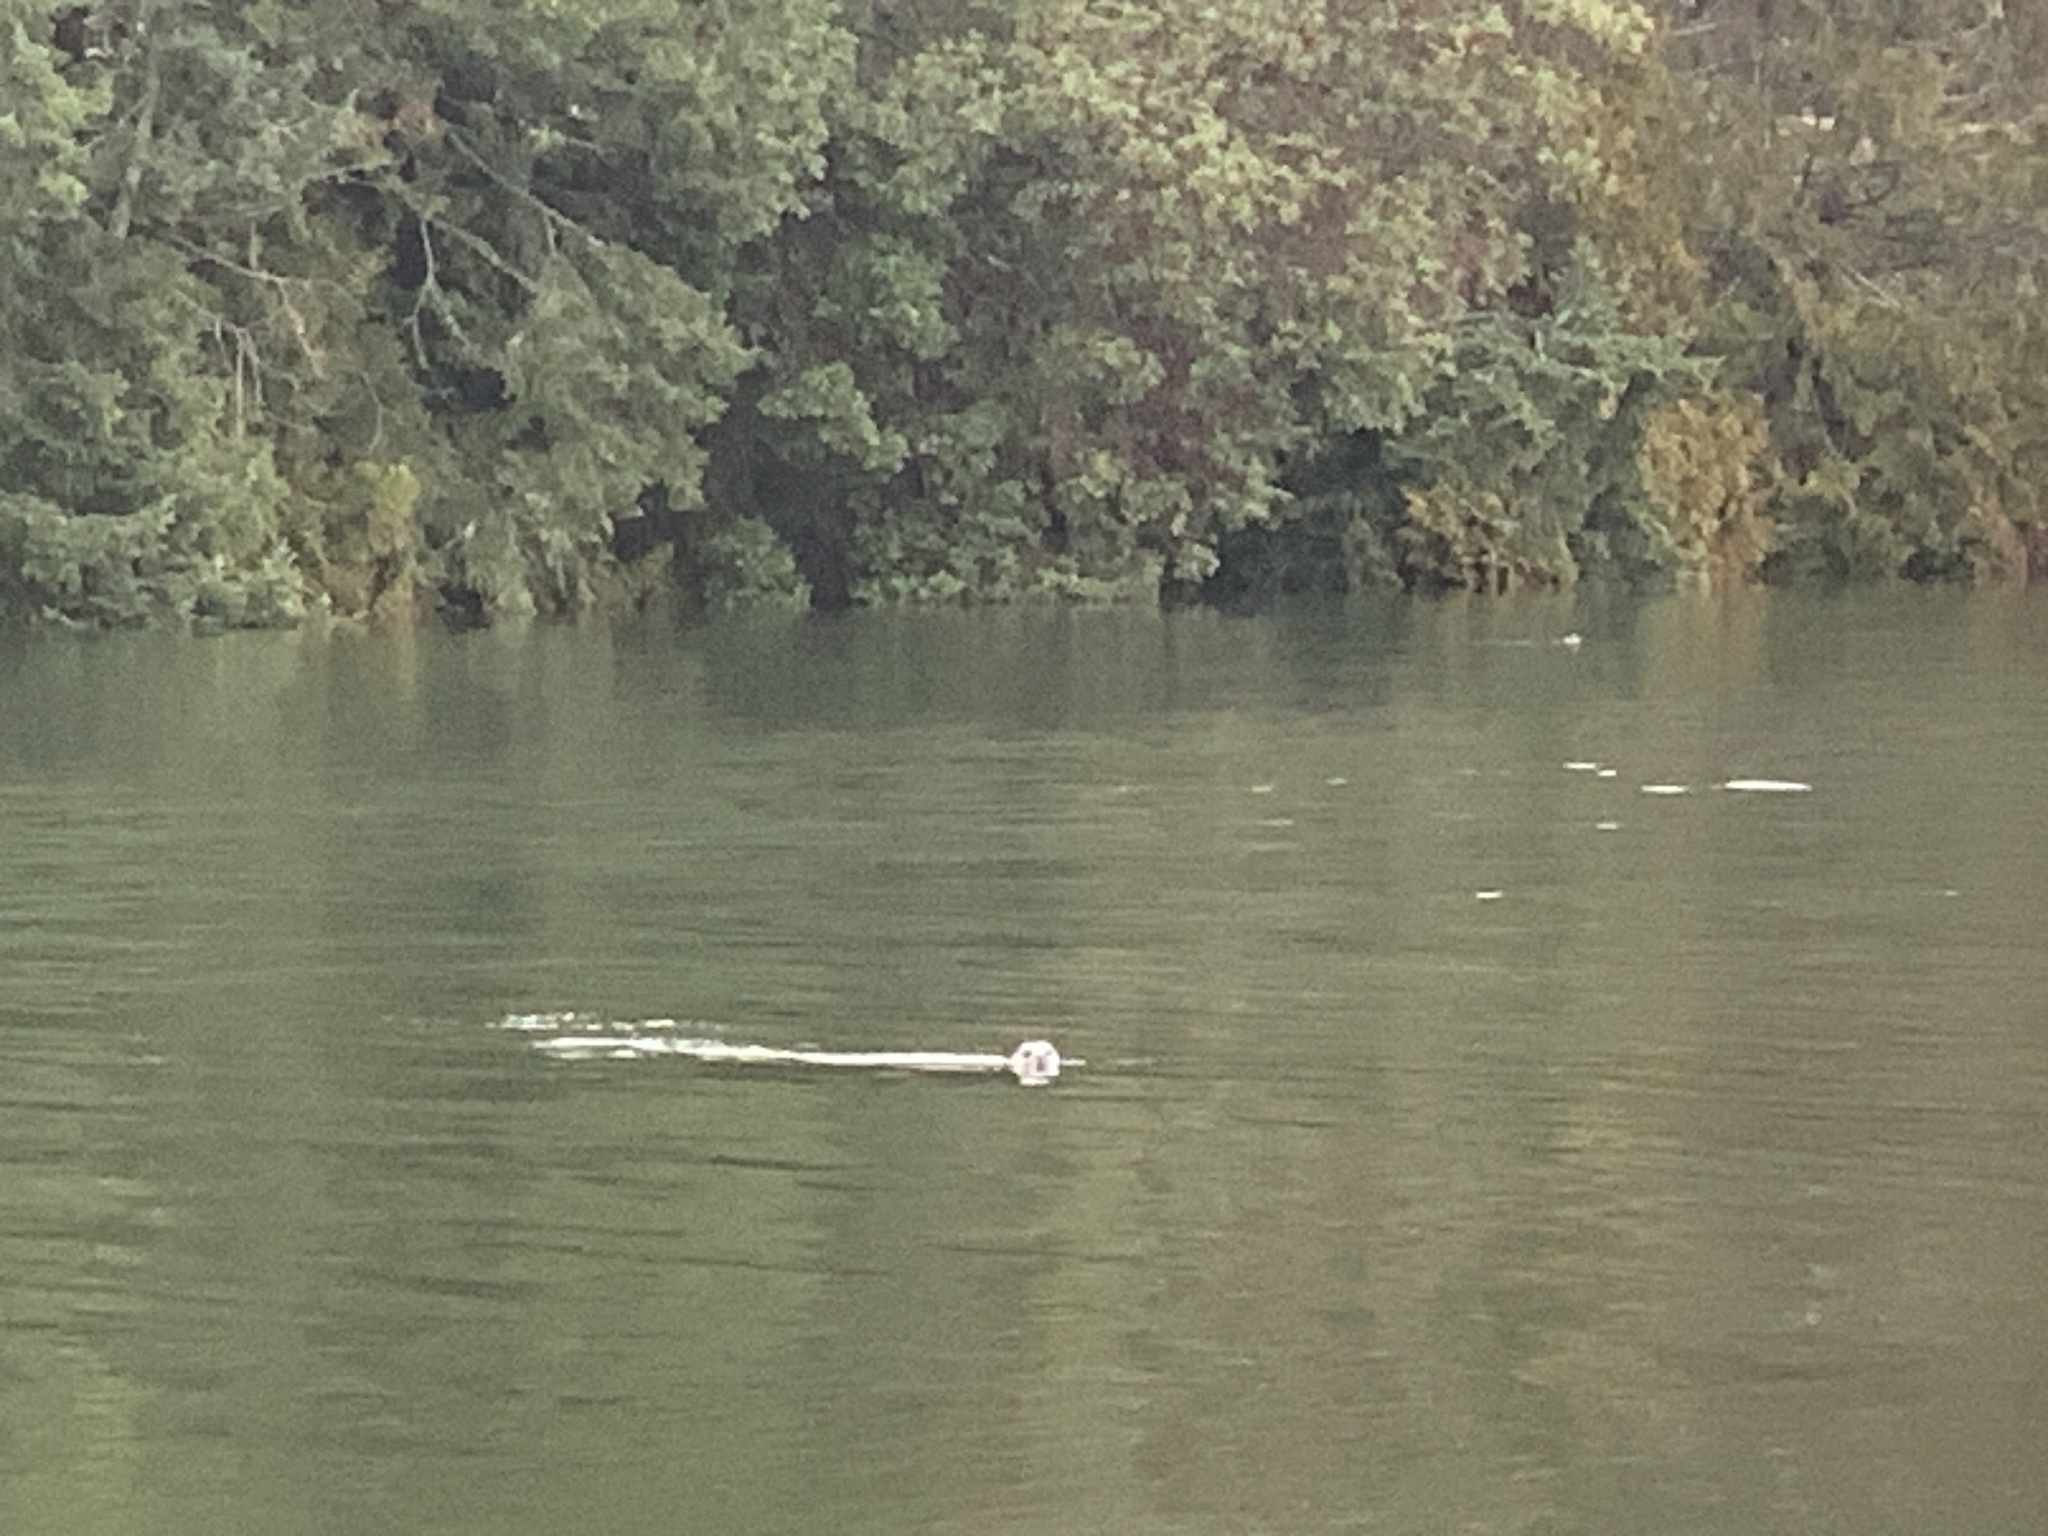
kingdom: Animalia
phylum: Chordata
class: Mammalia
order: Carnivora
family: Phocidae
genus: Phoca
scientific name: Phoca vitulina
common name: Harbor seal
